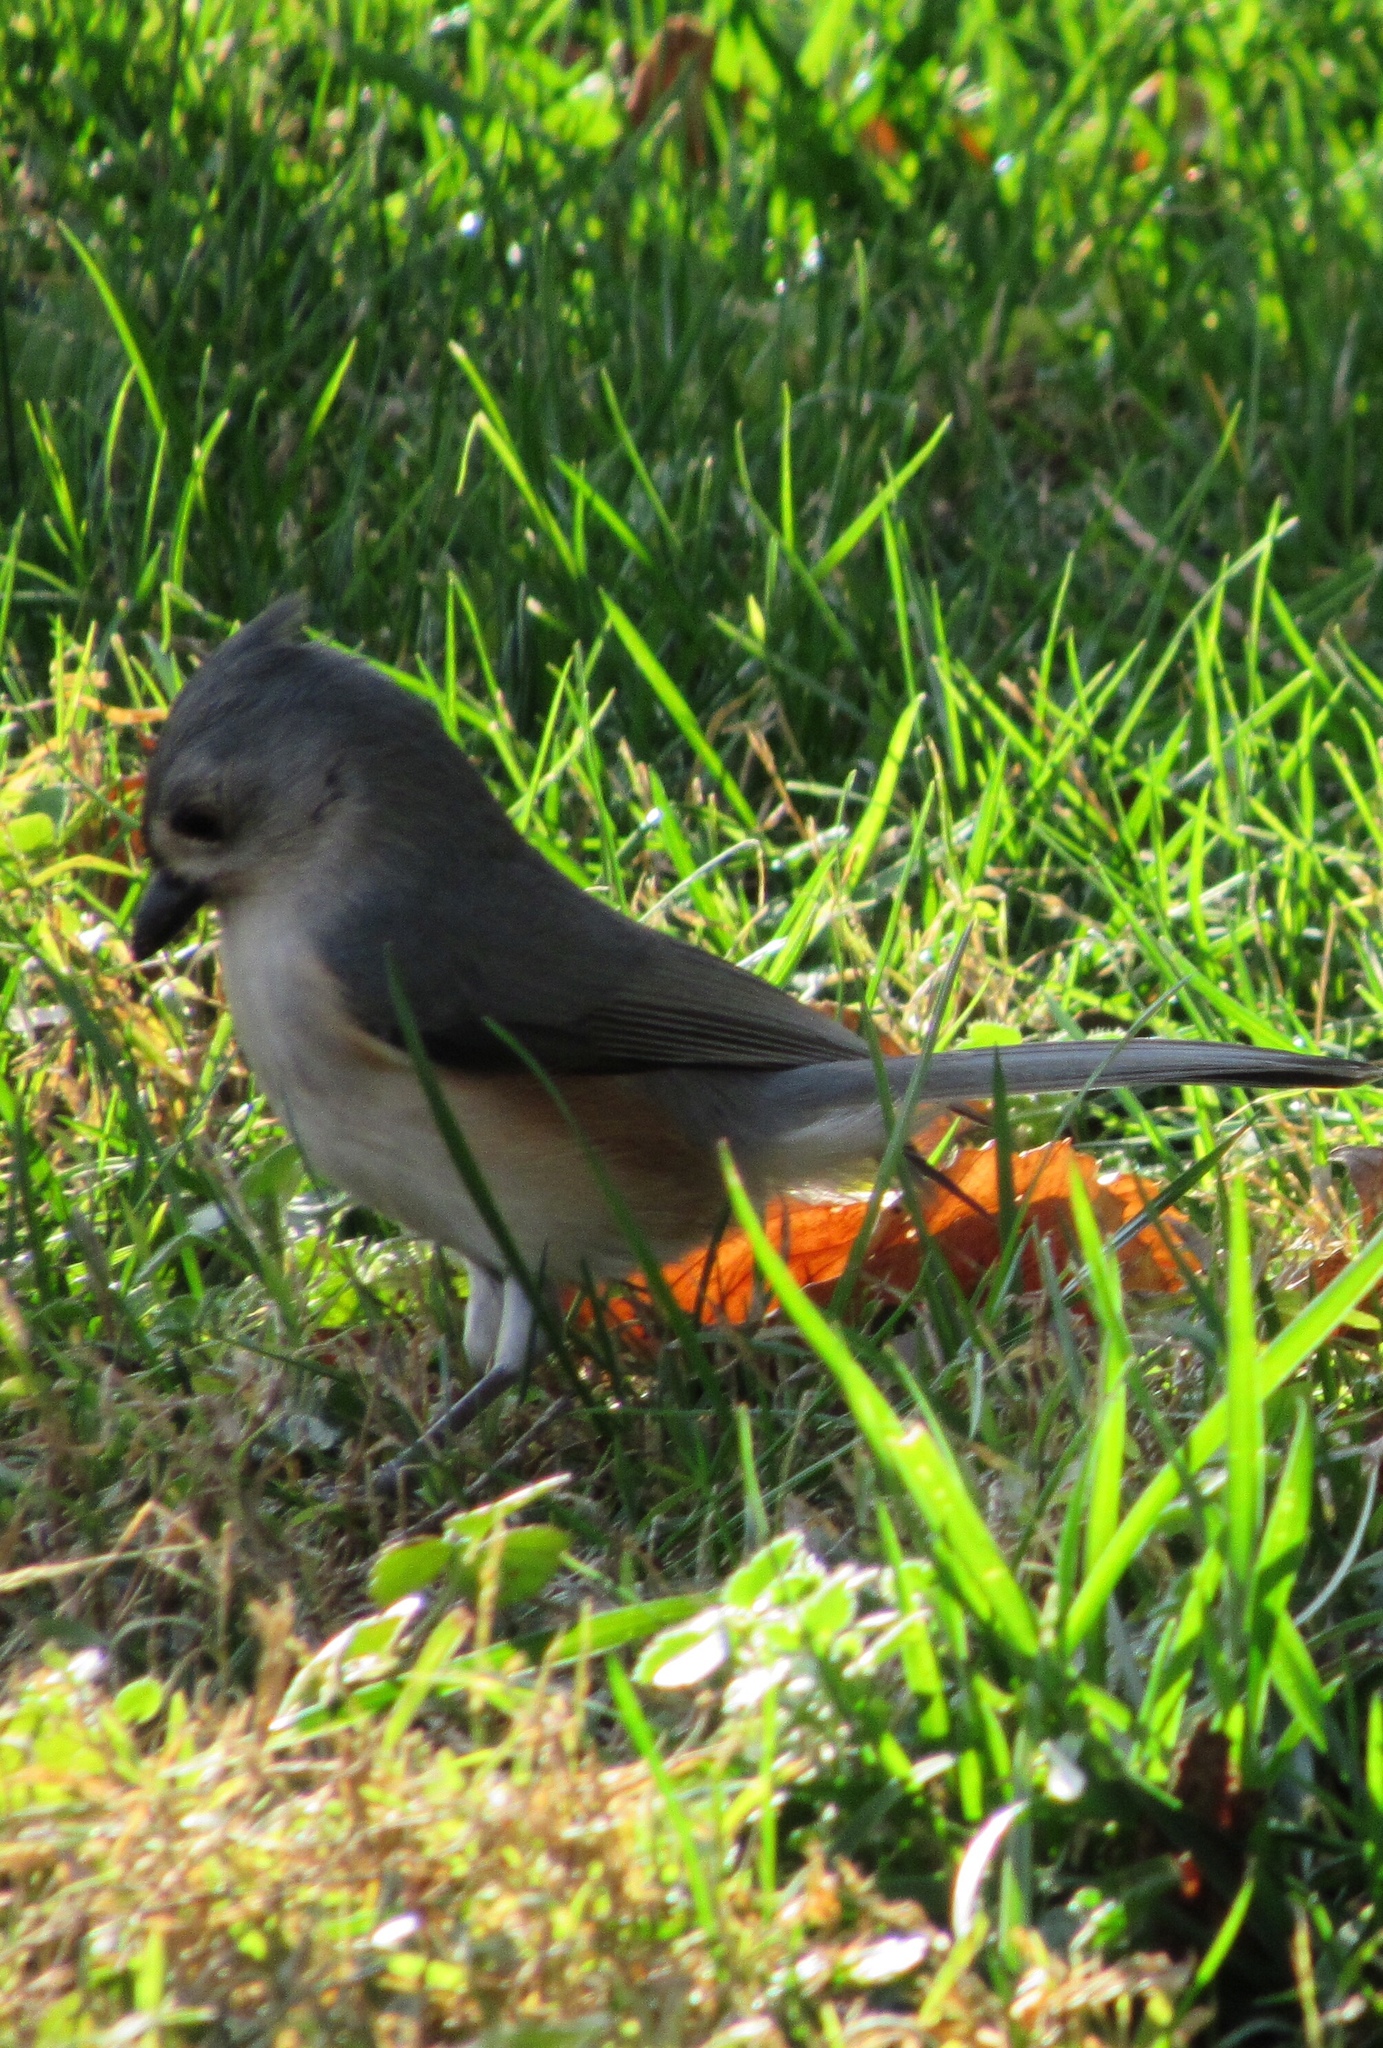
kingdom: Animalia
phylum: Chordata
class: Aves
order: Passeriformes
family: Paridae
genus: Baeolophus
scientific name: Baeolophus bicolor
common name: Tufted titmouse
